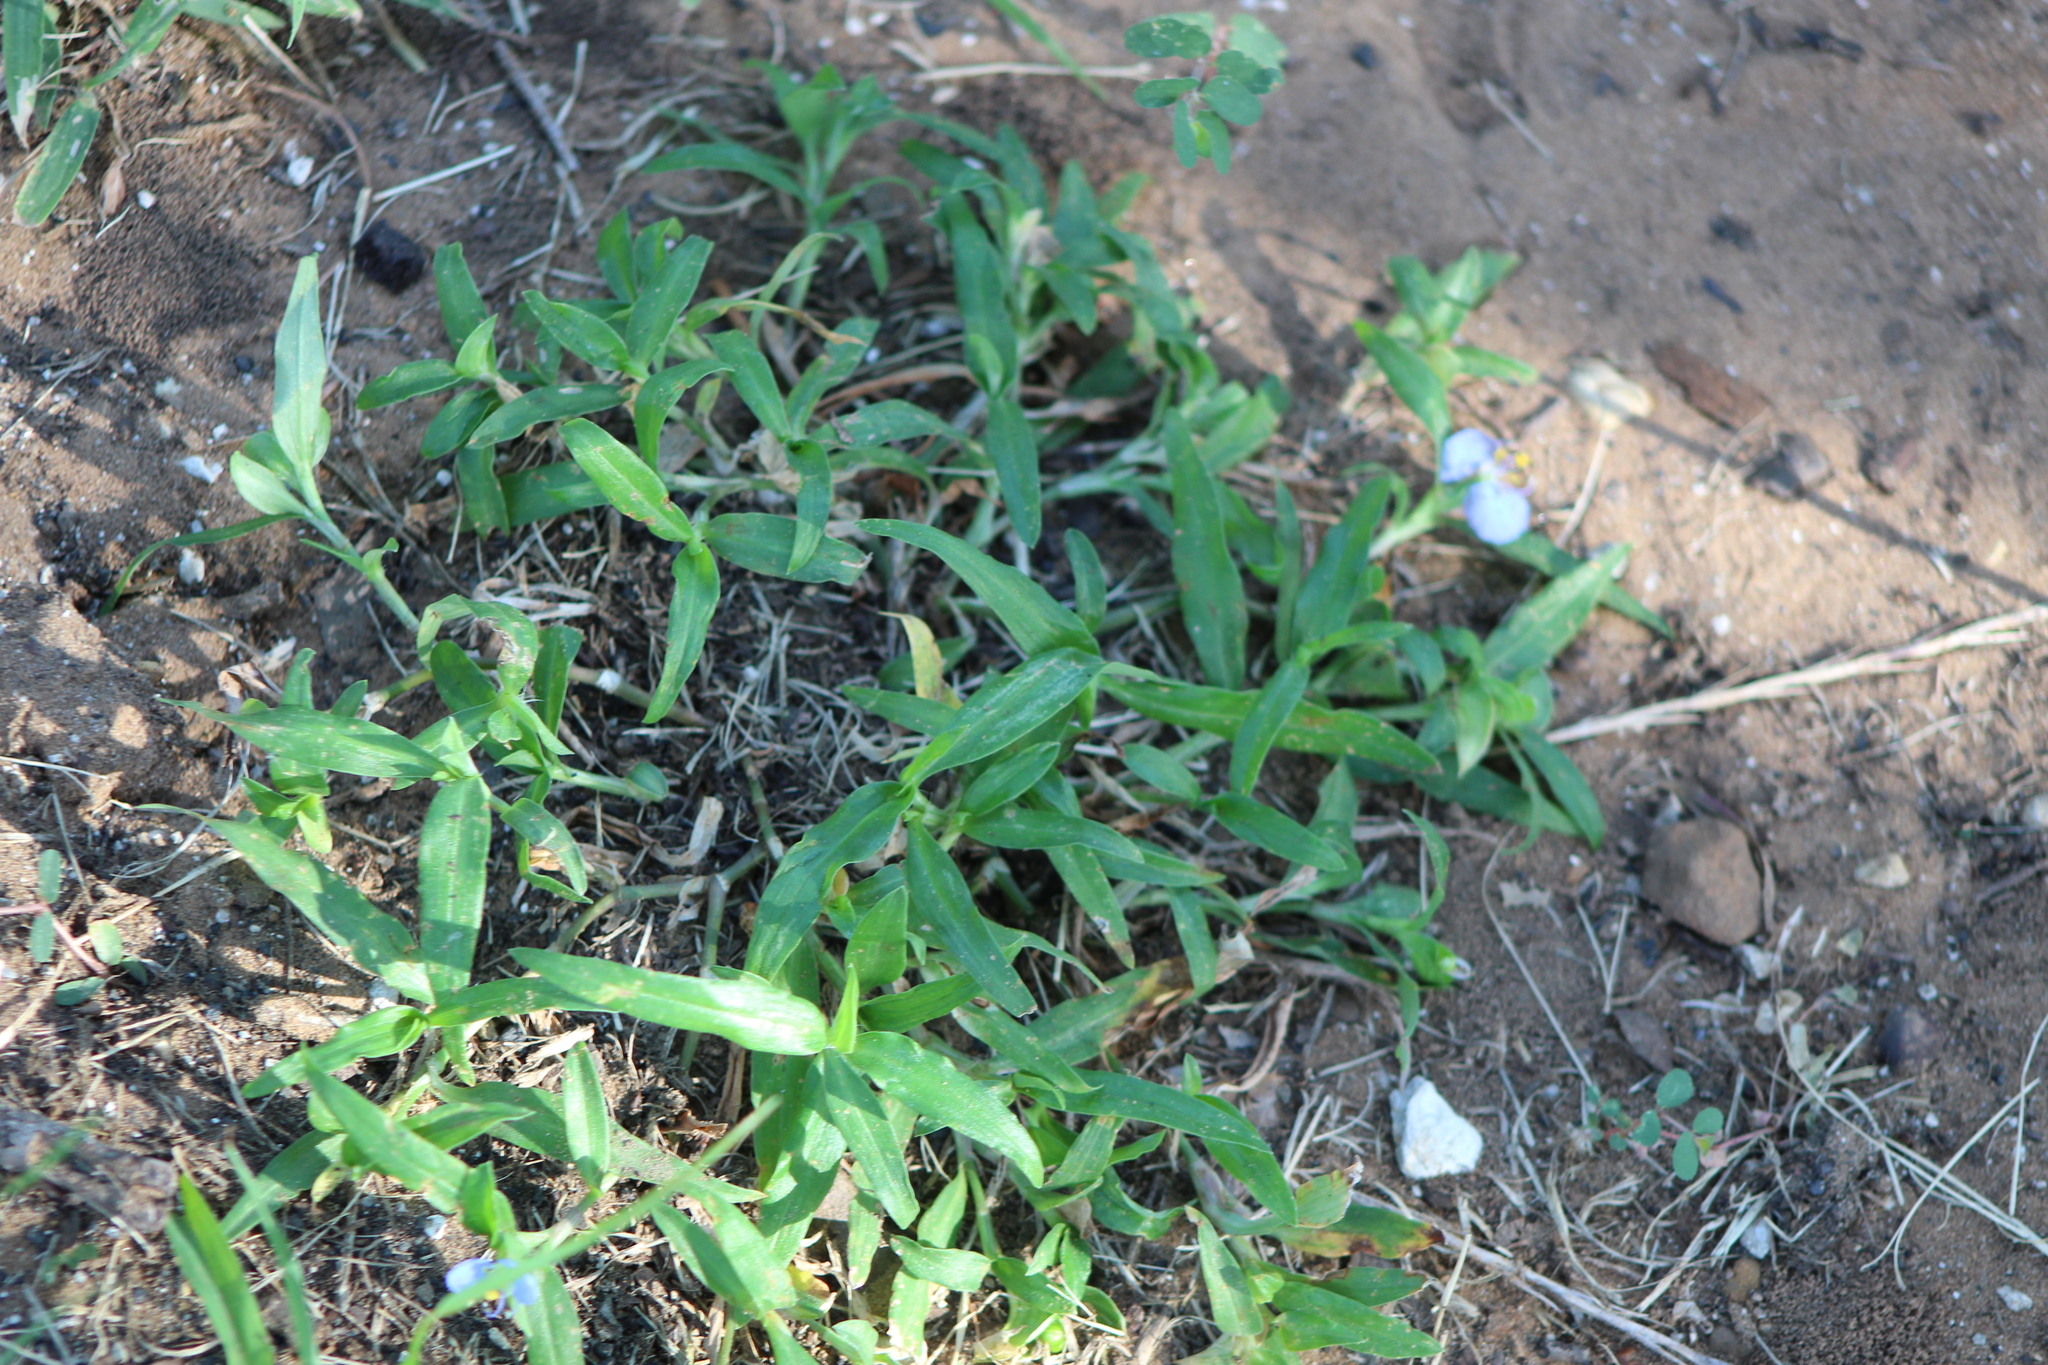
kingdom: Plantae
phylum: Tracheophyta
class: Liliopsida
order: Commelinales
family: Commelinaceae
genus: Commelina
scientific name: Commelina erecta
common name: Blousel blommetjie
